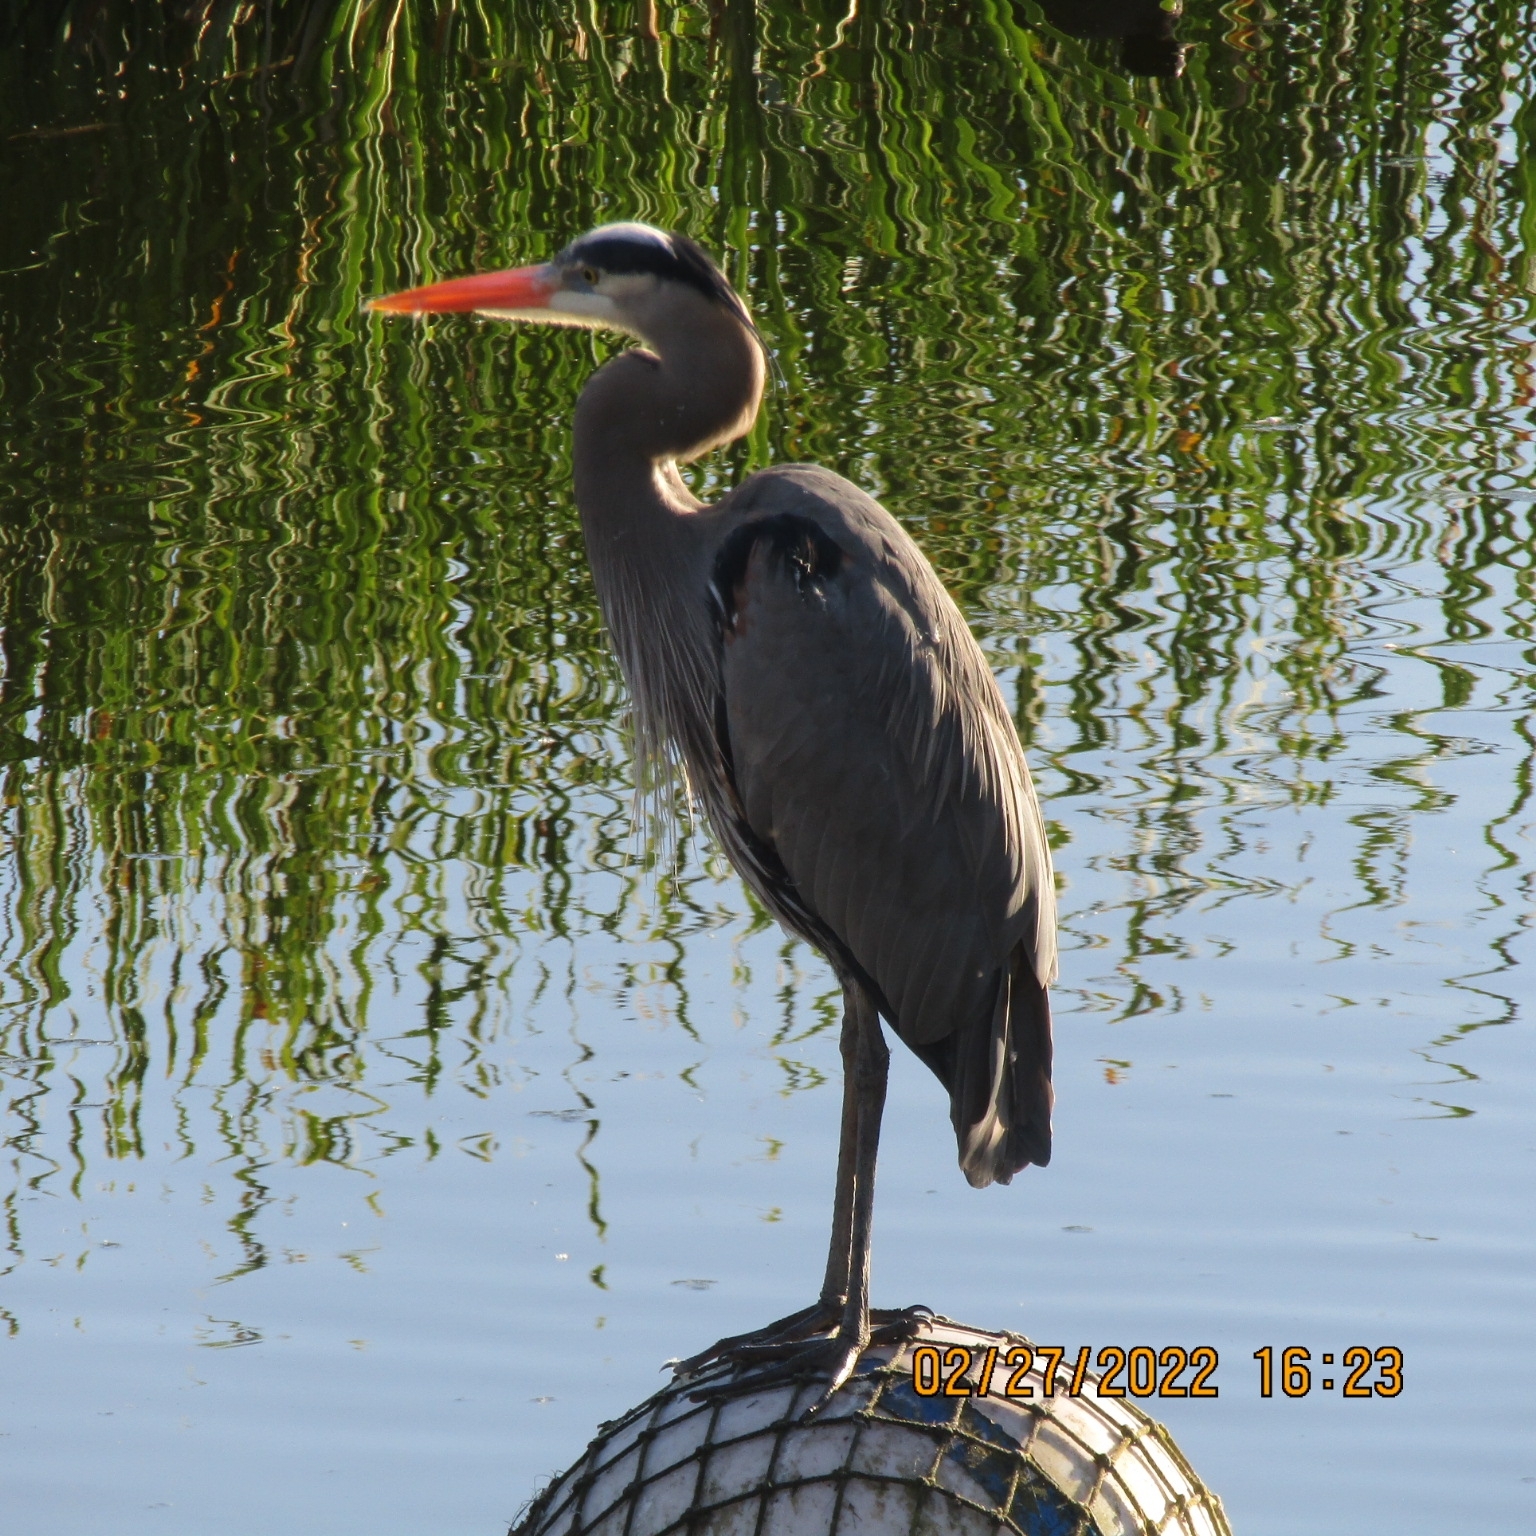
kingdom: Animalia
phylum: Chordata
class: Aves
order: Pelecaniformes
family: Ardeidae
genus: Ardea
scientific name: Ardea herodias
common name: Great blue heron
